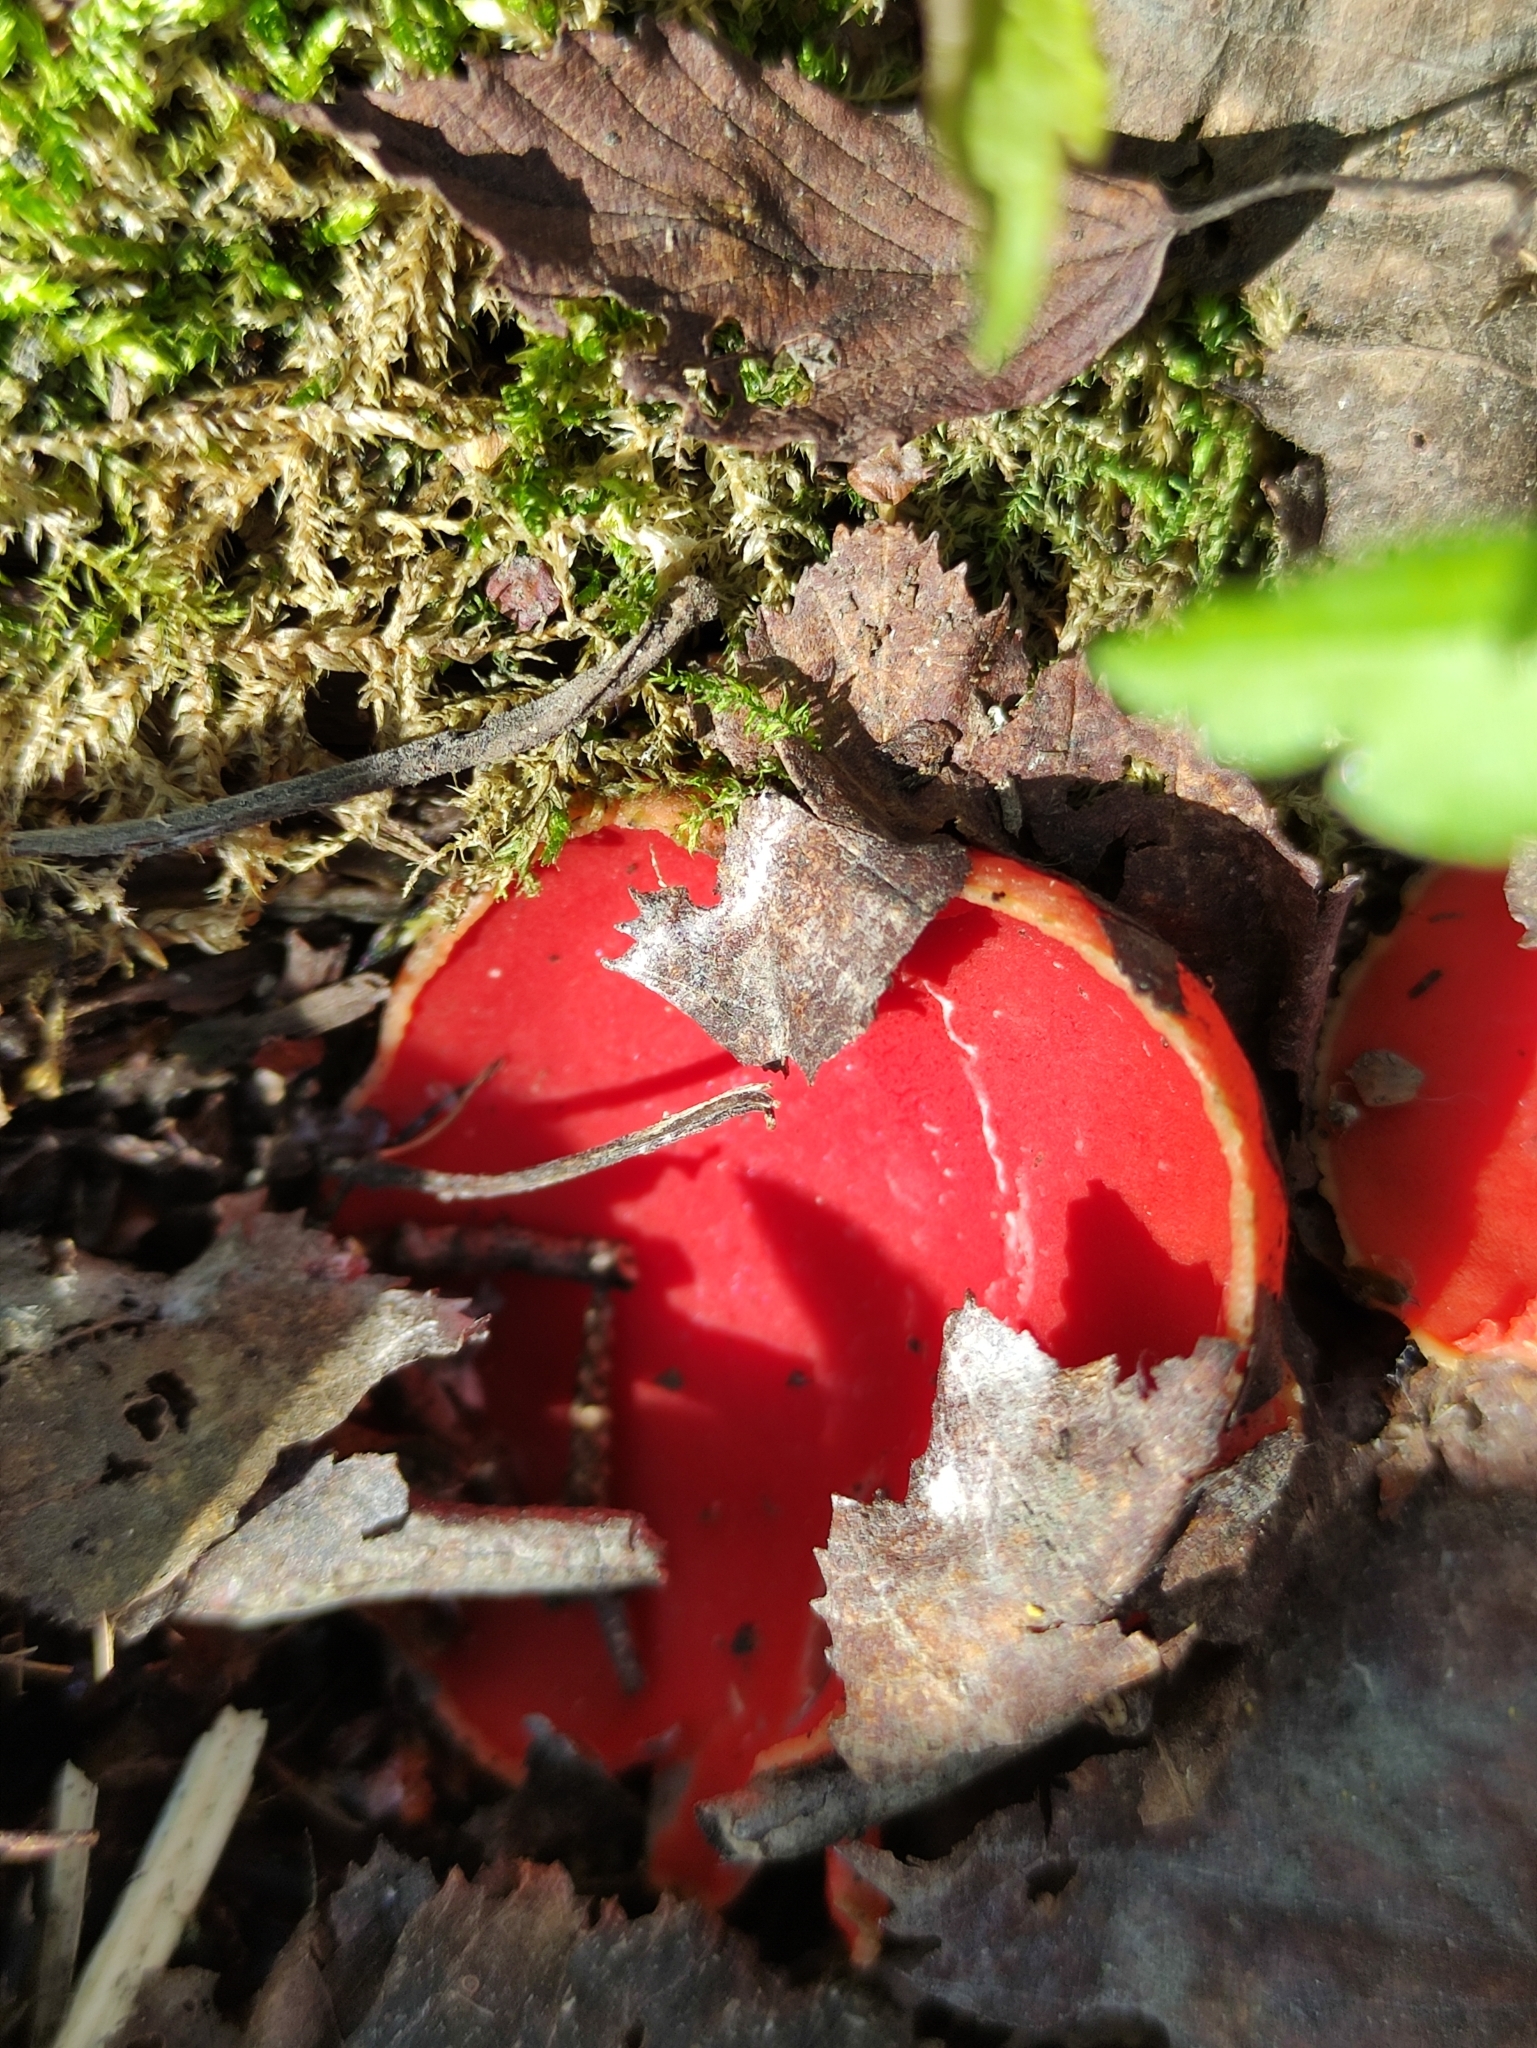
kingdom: Fungi
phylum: Ascomycota
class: Pezizomycetes
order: Pezizales
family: Sarcoscyphaceae
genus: Sarcoscypha
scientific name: Sarcoscypha austriaca
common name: Scarlet elfcup
